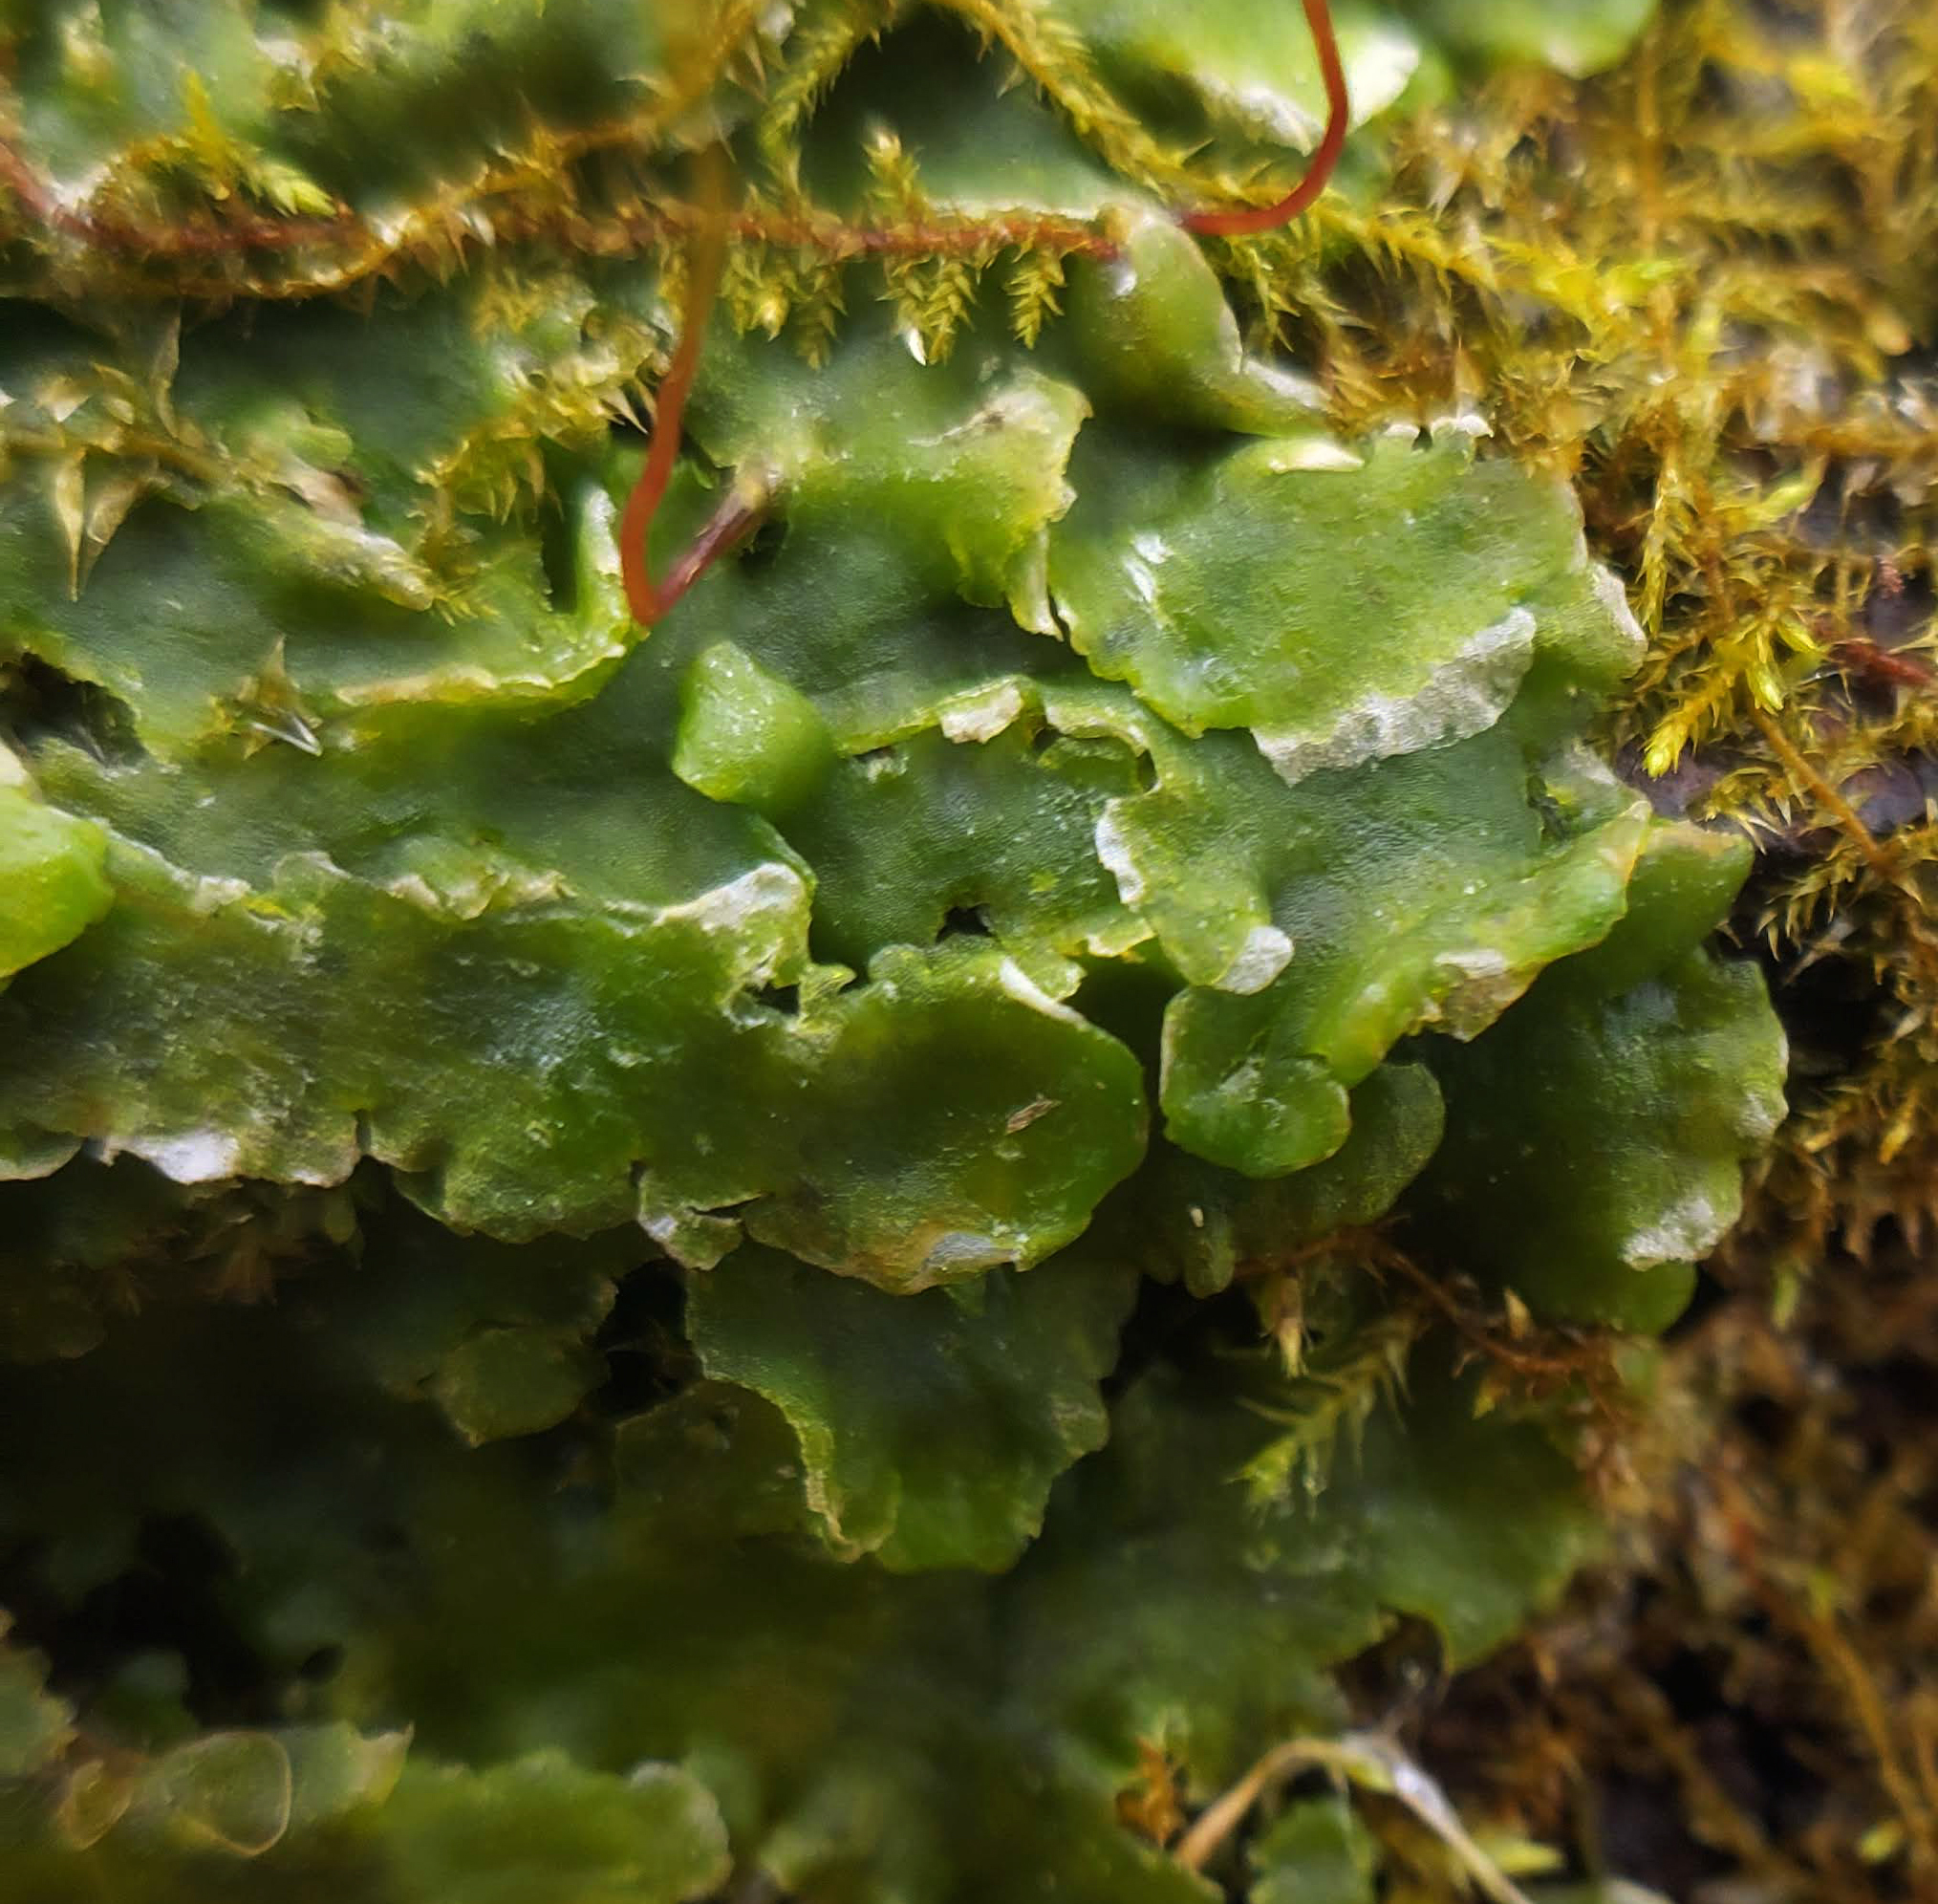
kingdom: Plantae
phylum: Marchantiophyta
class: Jungermanniopsida
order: Metzgeriales
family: Aneuraceae
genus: Aneura
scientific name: Aneura pinguis
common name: Common greasewort
